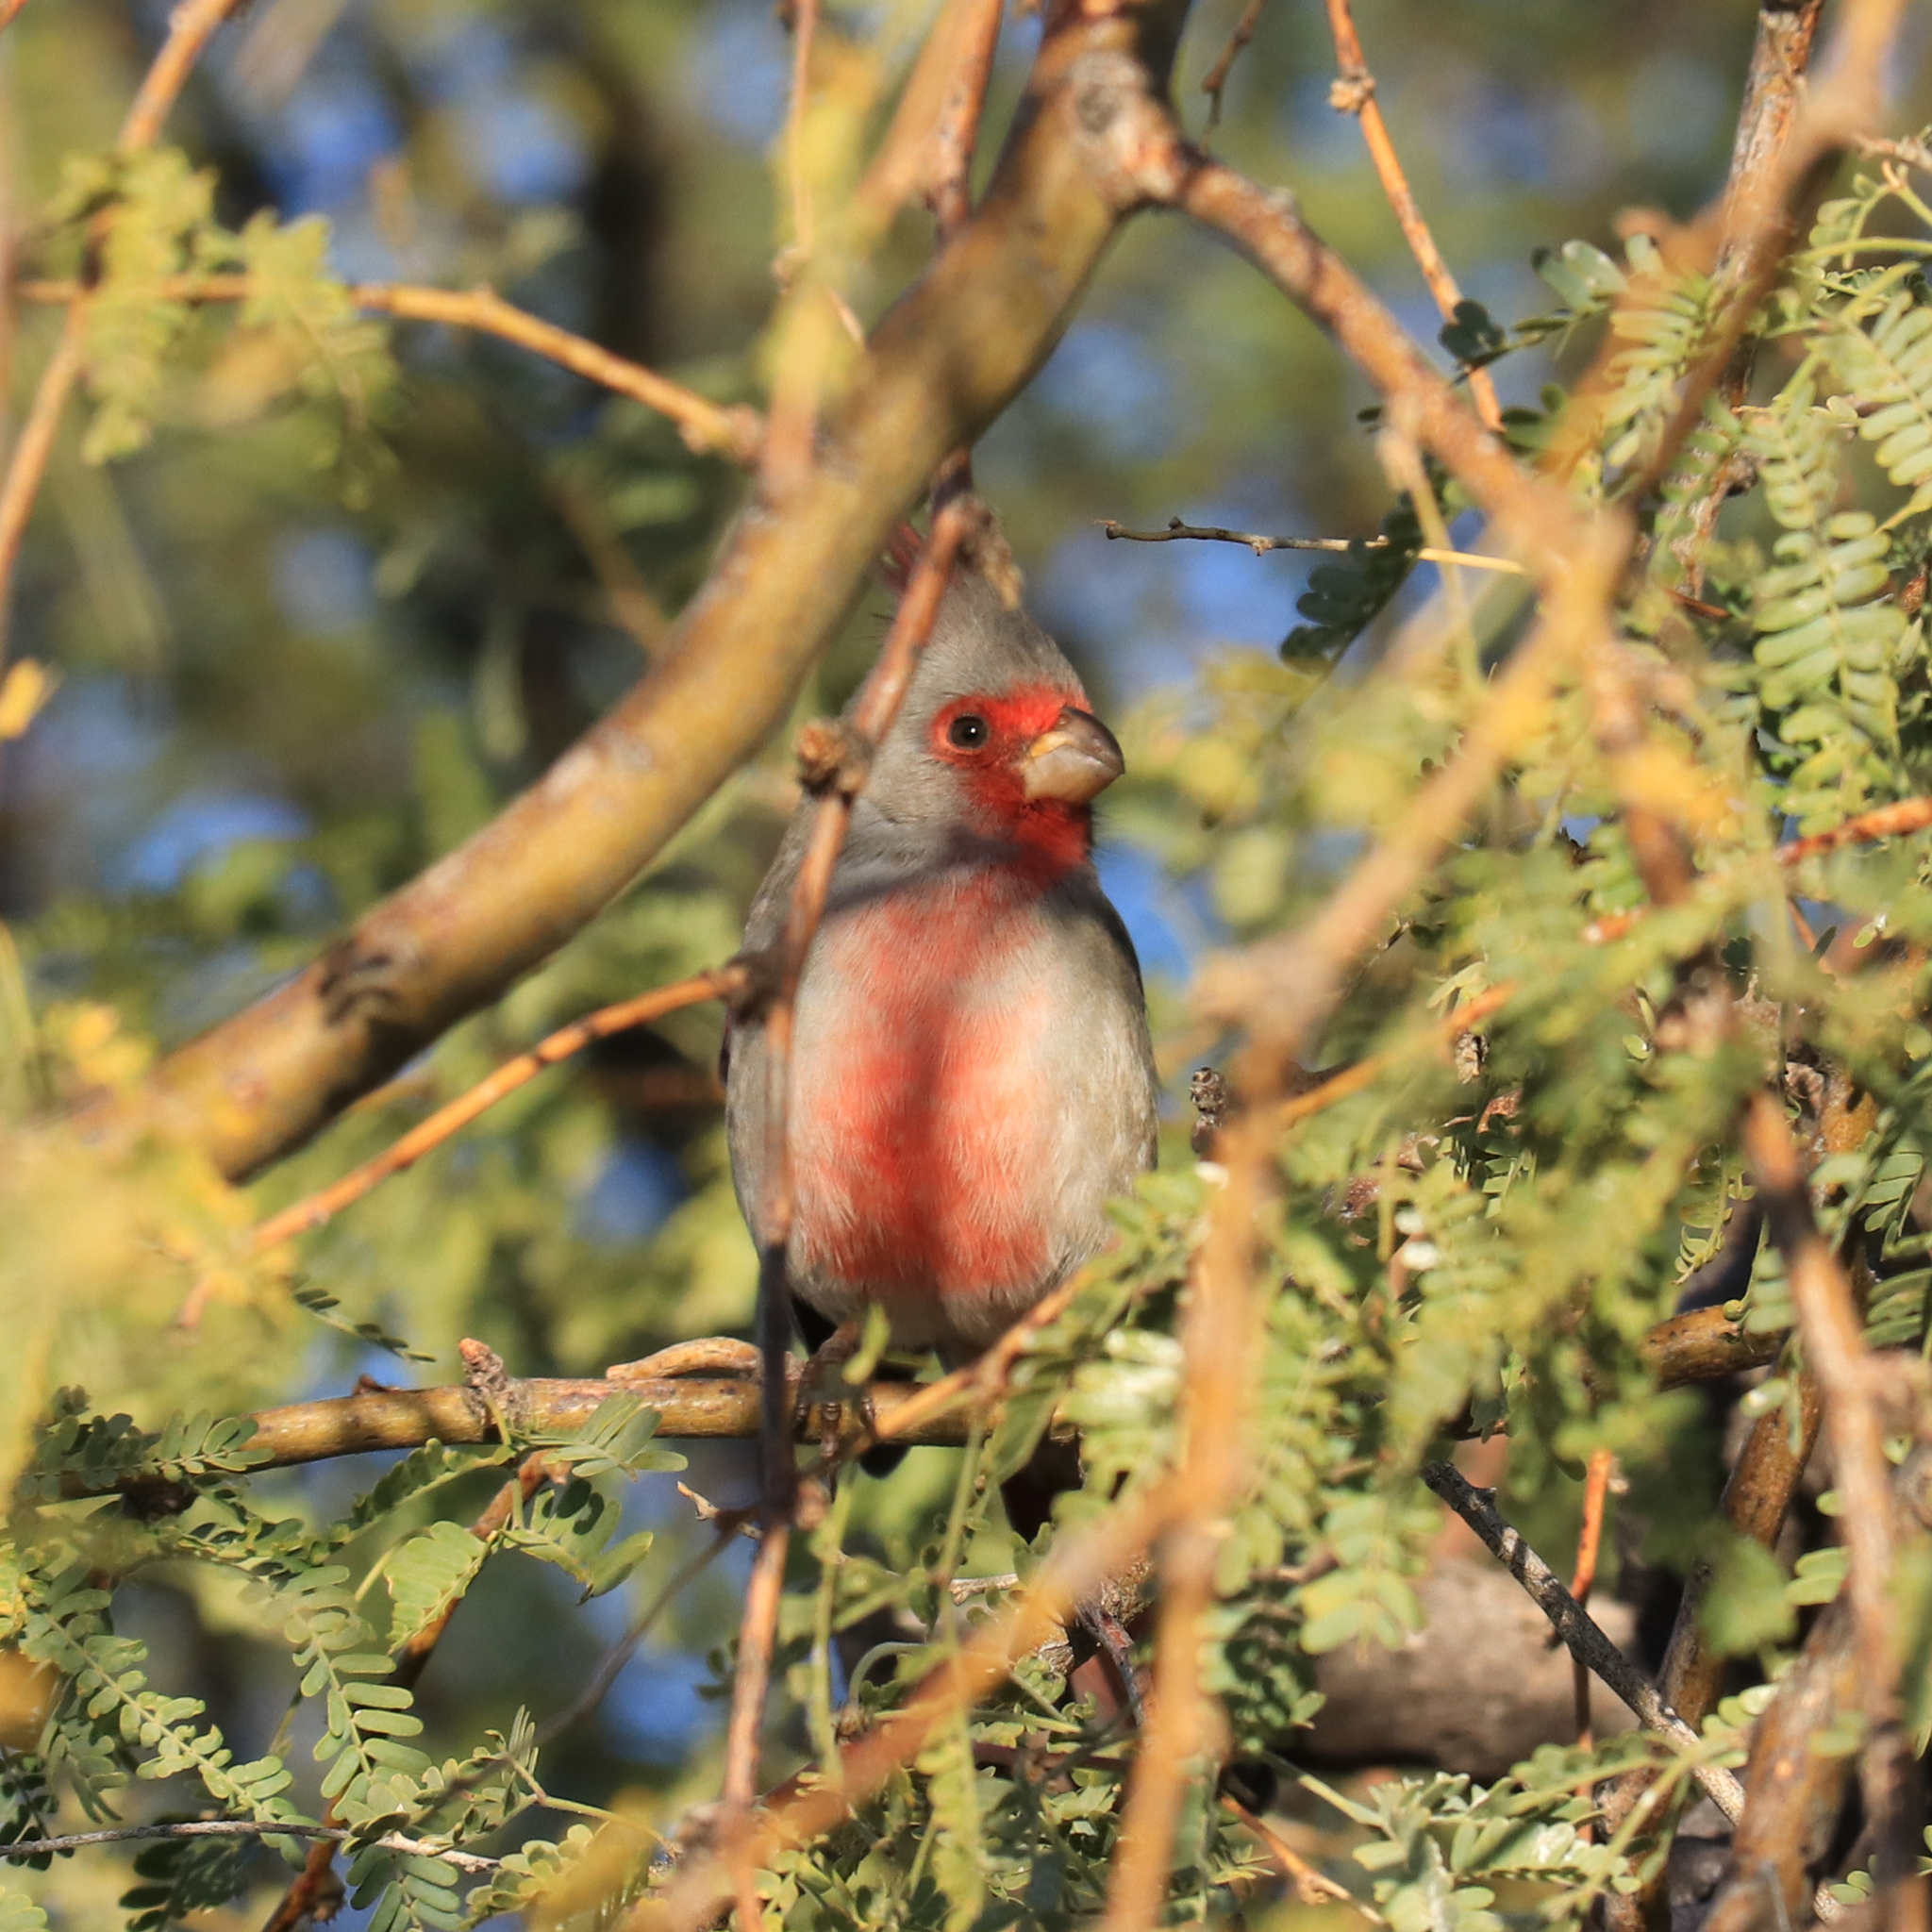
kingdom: Animalia
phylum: Chordata
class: Aves
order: Passeriformes
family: Cardinalidae
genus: Cardinalis
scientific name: Cardinalis sinuatus
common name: Pyrrhuloxia
